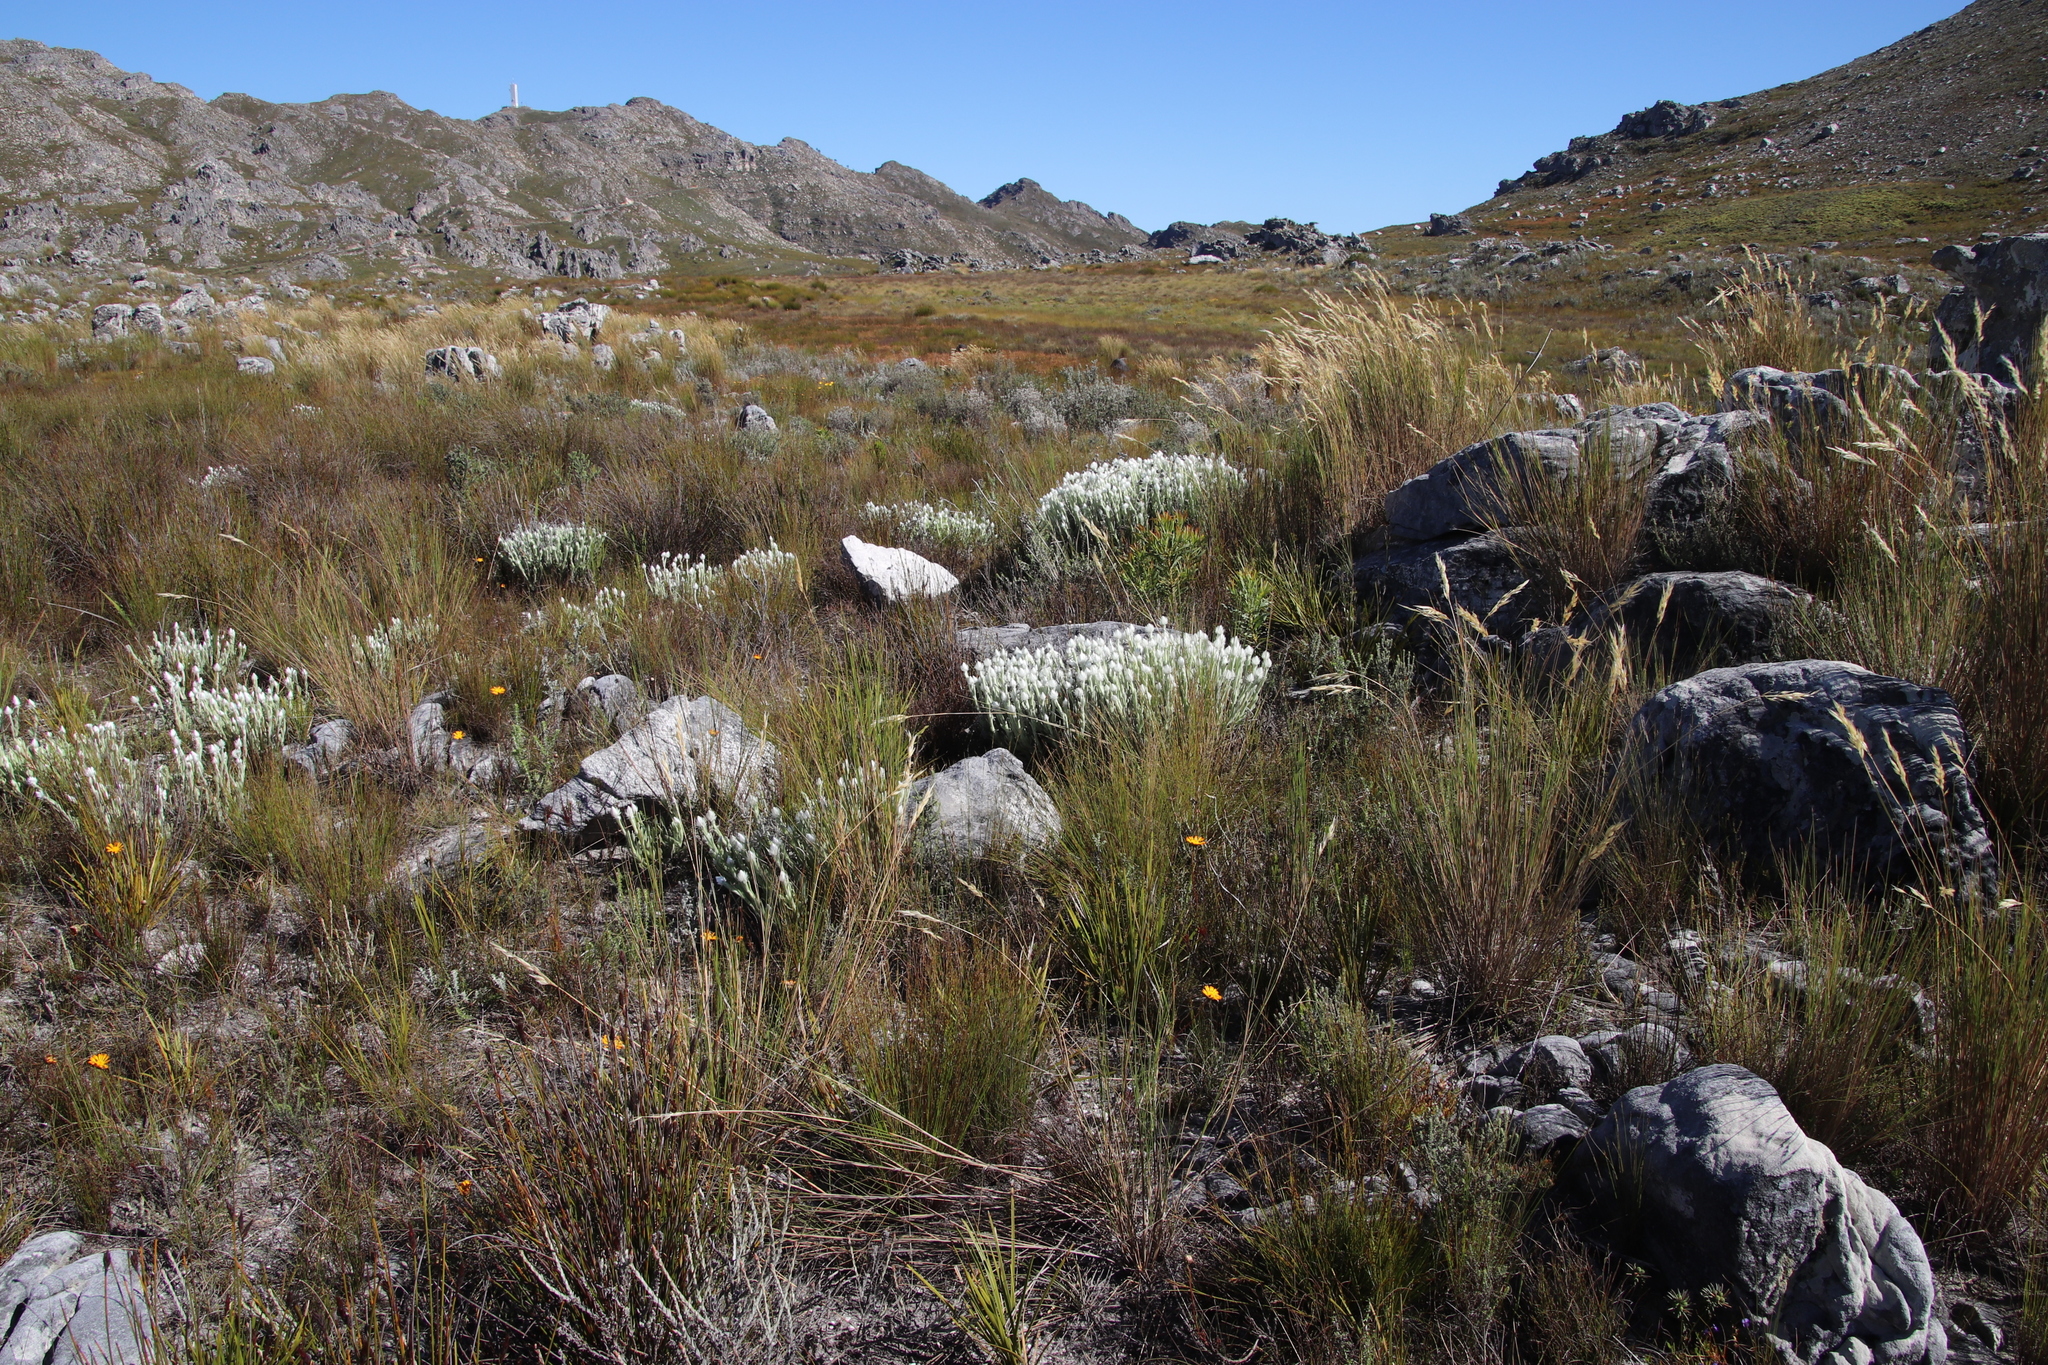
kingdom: Plantae
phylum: Tracheophyta
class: Magnoliopsida
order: Asterales
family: Asteraceae
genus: Syncarpha
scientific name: Syncarpha vestita
